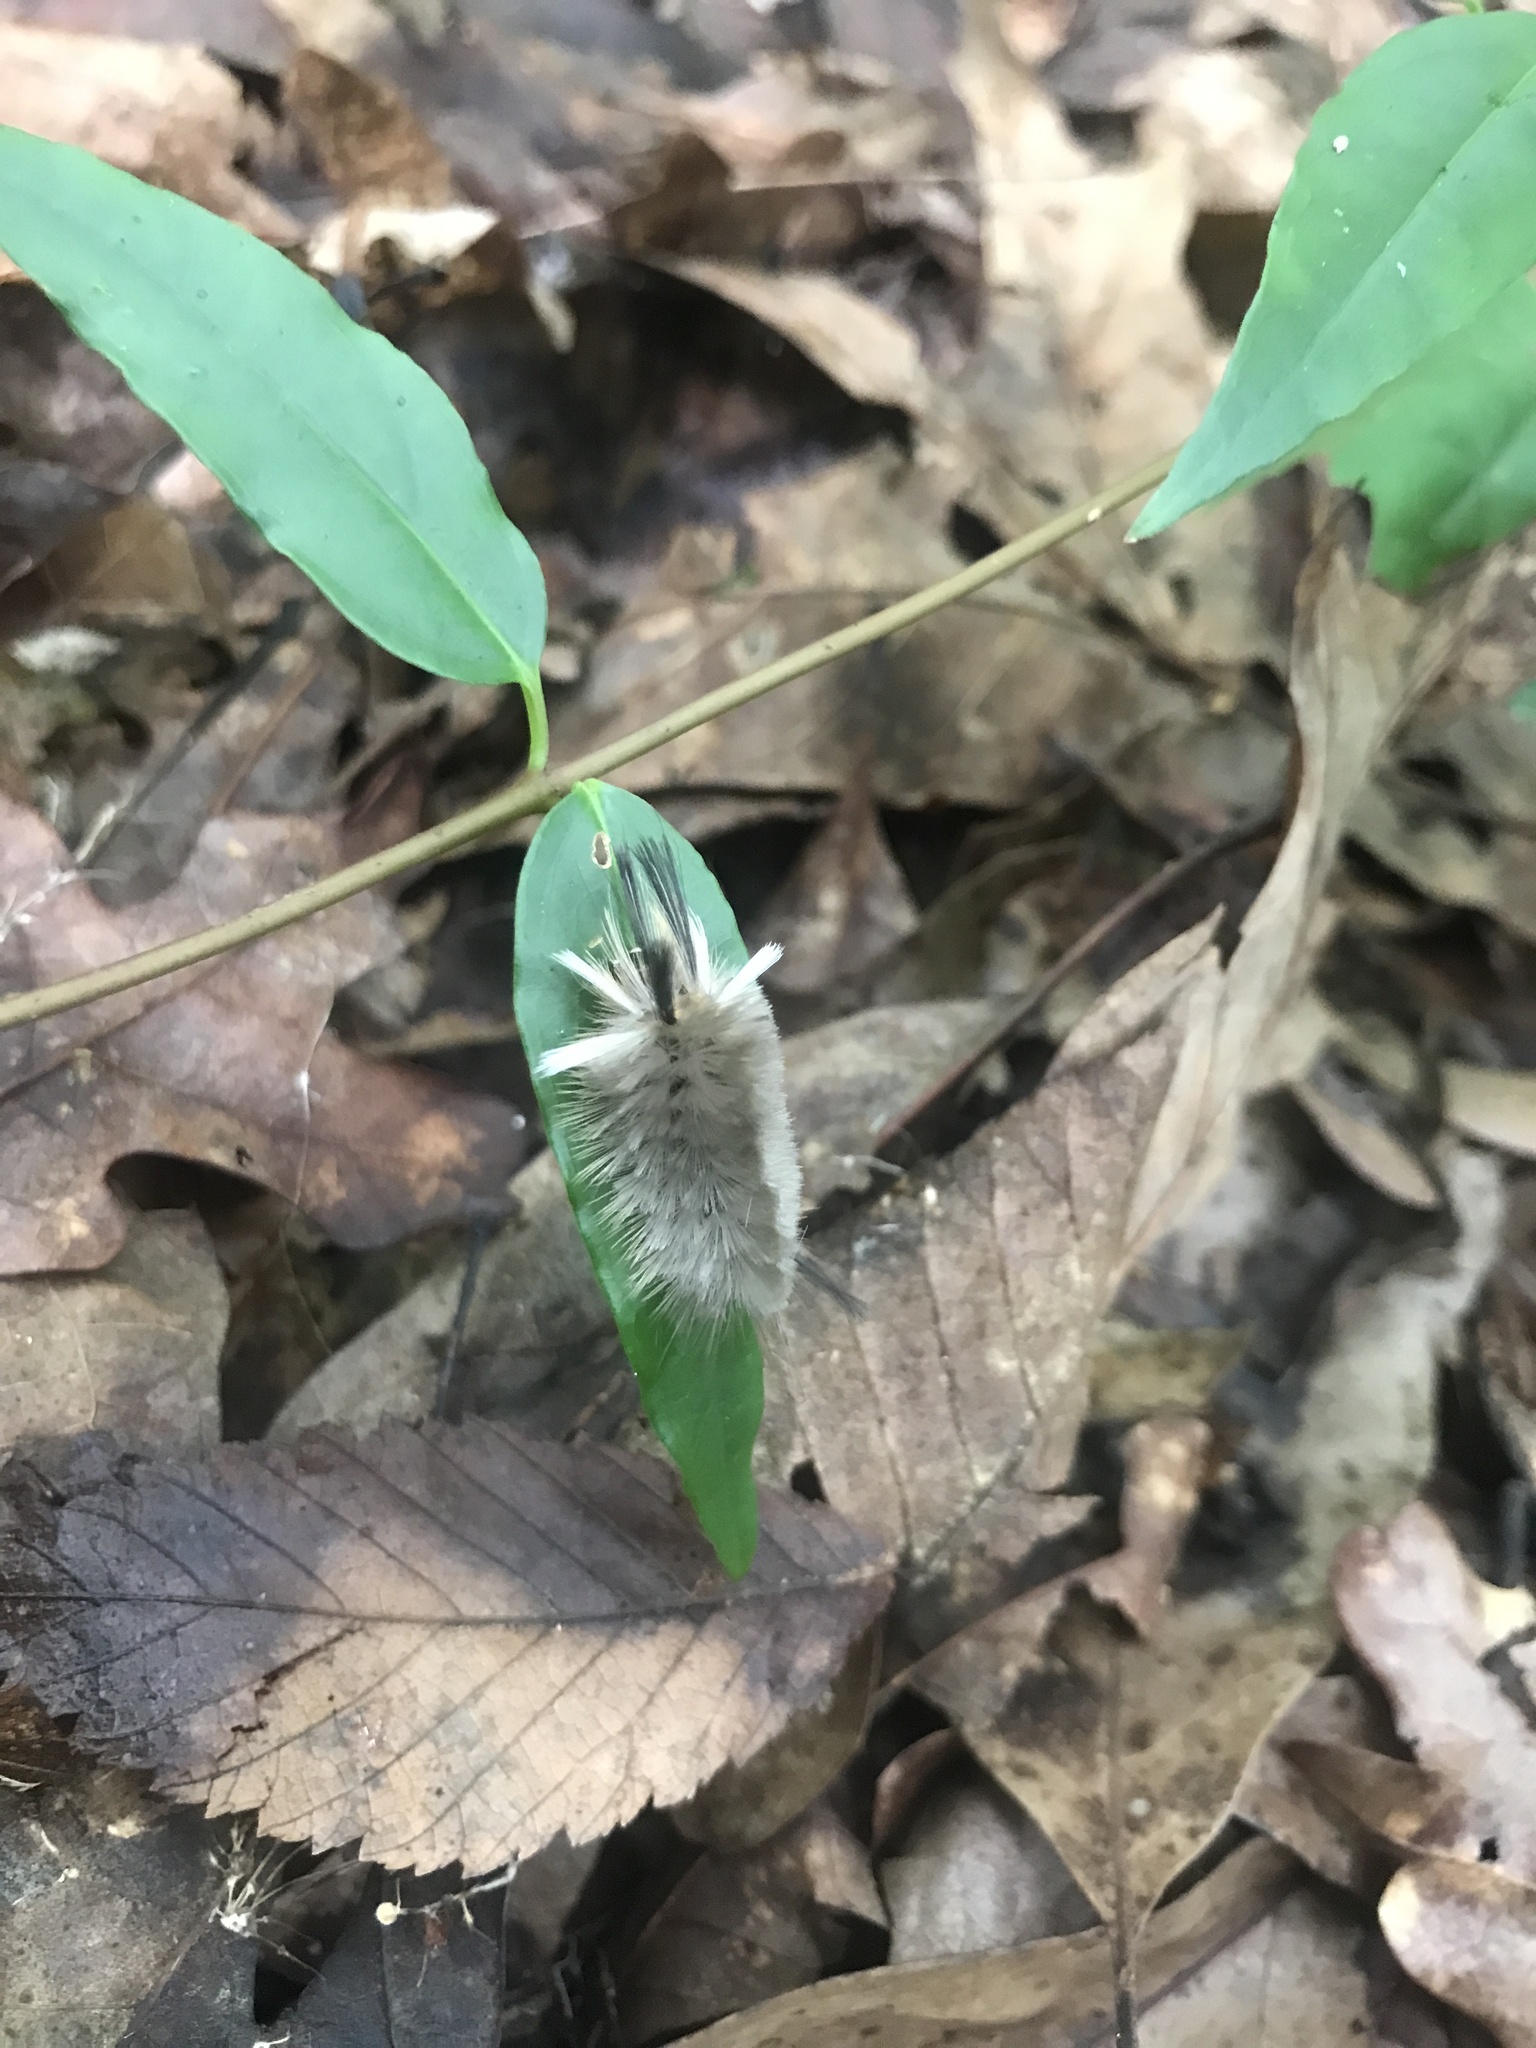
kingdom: Animalia
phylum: Arthropoda
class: Insecta
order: Lepidoptera
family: Erebidae
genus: Halysidota
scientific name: Halysidota tessellaris
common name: Banded tussock moth
